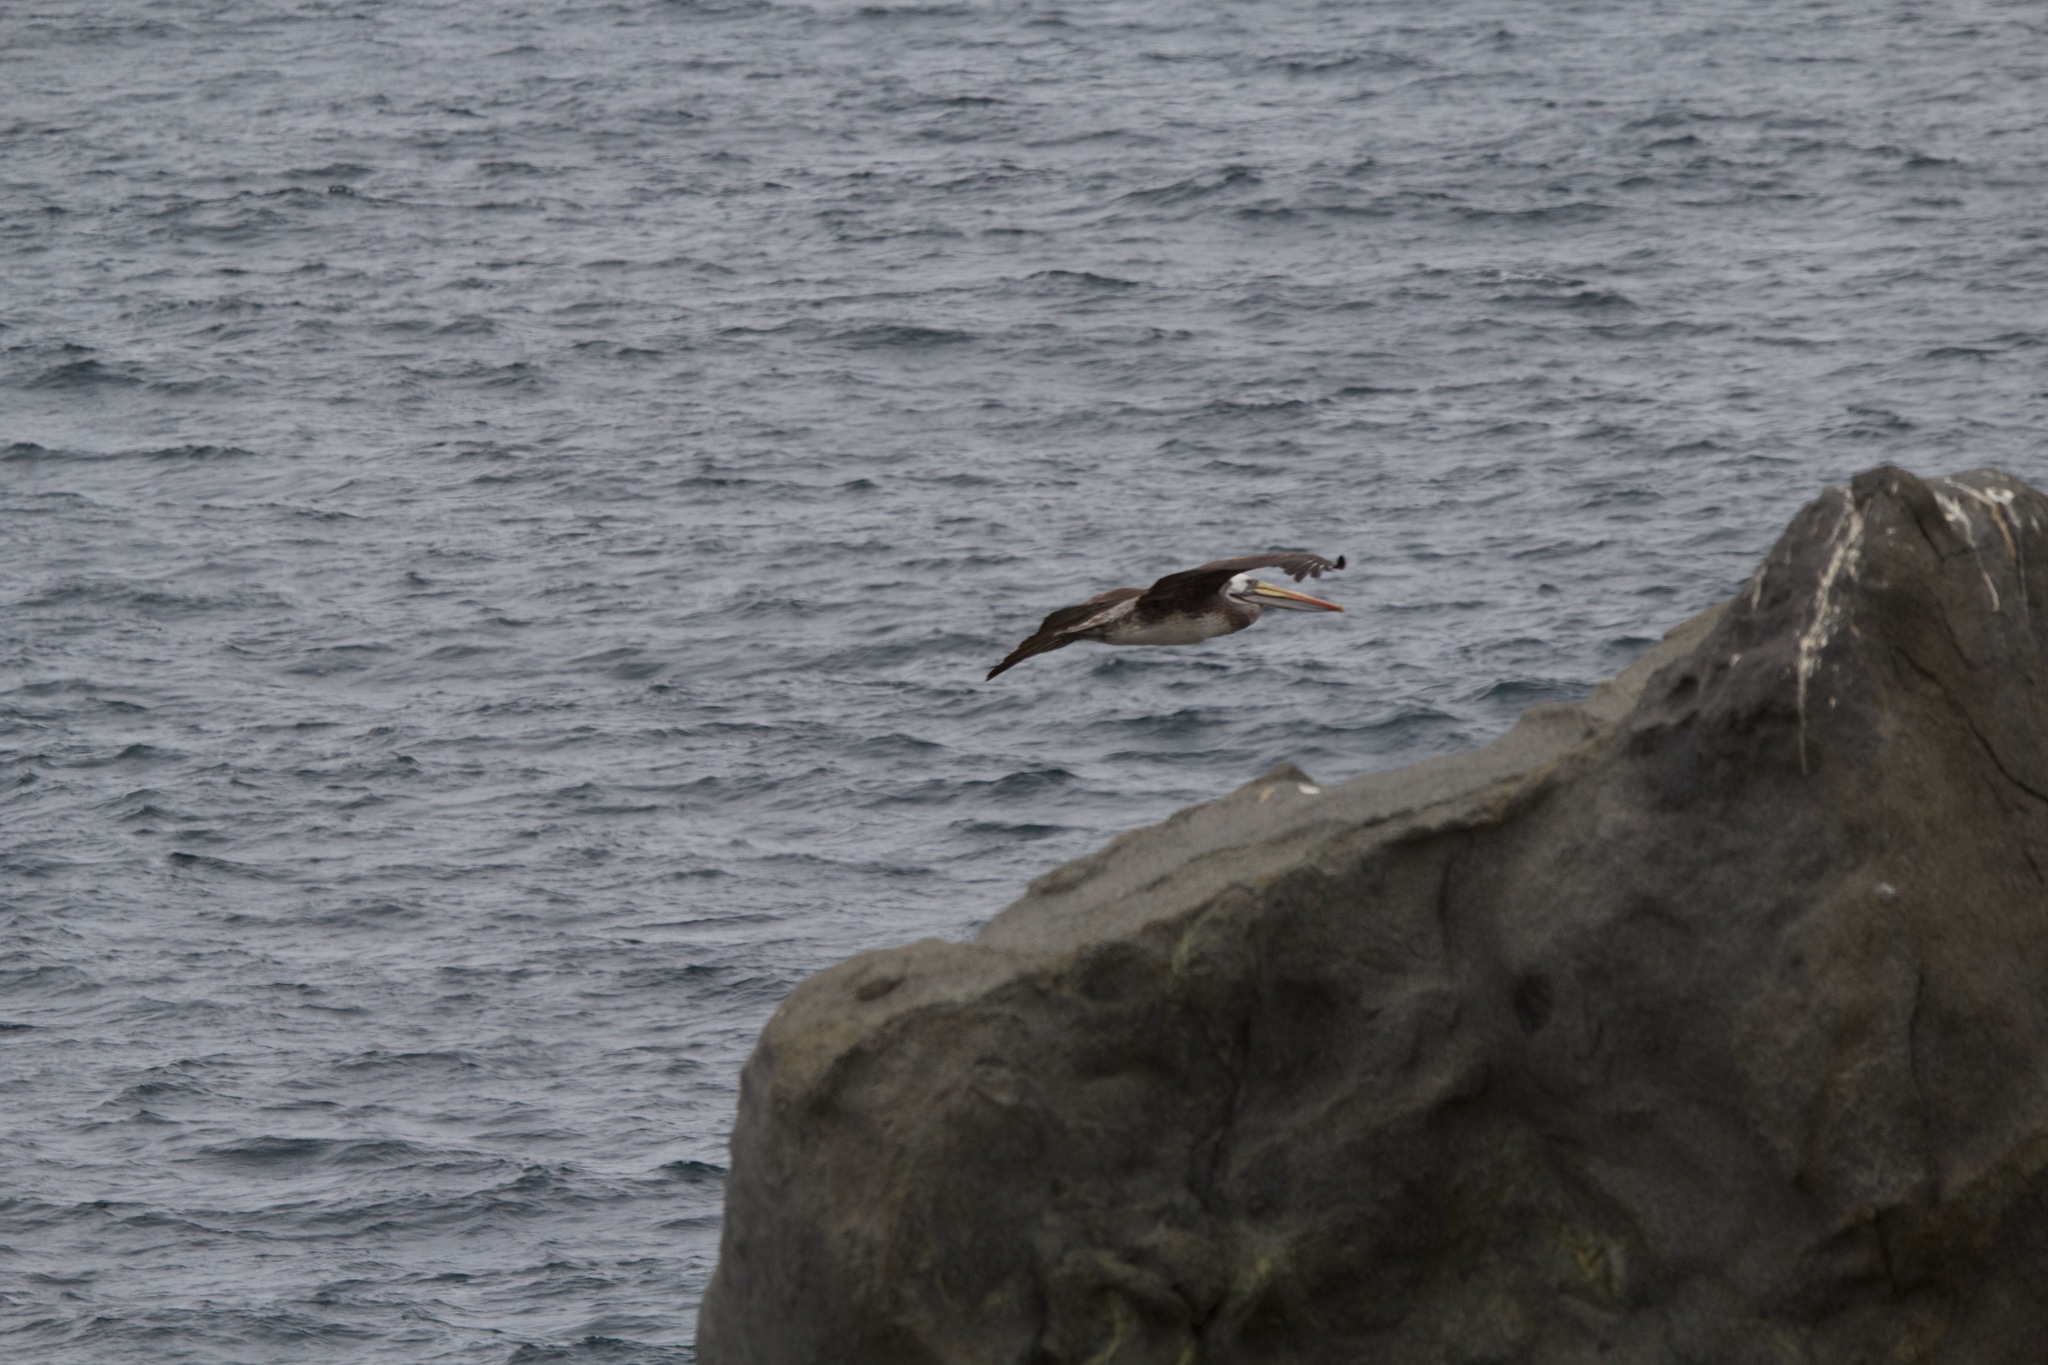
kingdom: Animalia
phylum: Chordata
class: Aves
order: Pelecaniformes
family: Pelecanidae
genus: Pelecanus
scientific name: Pelecanus thagus
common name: Peruvian pelican
